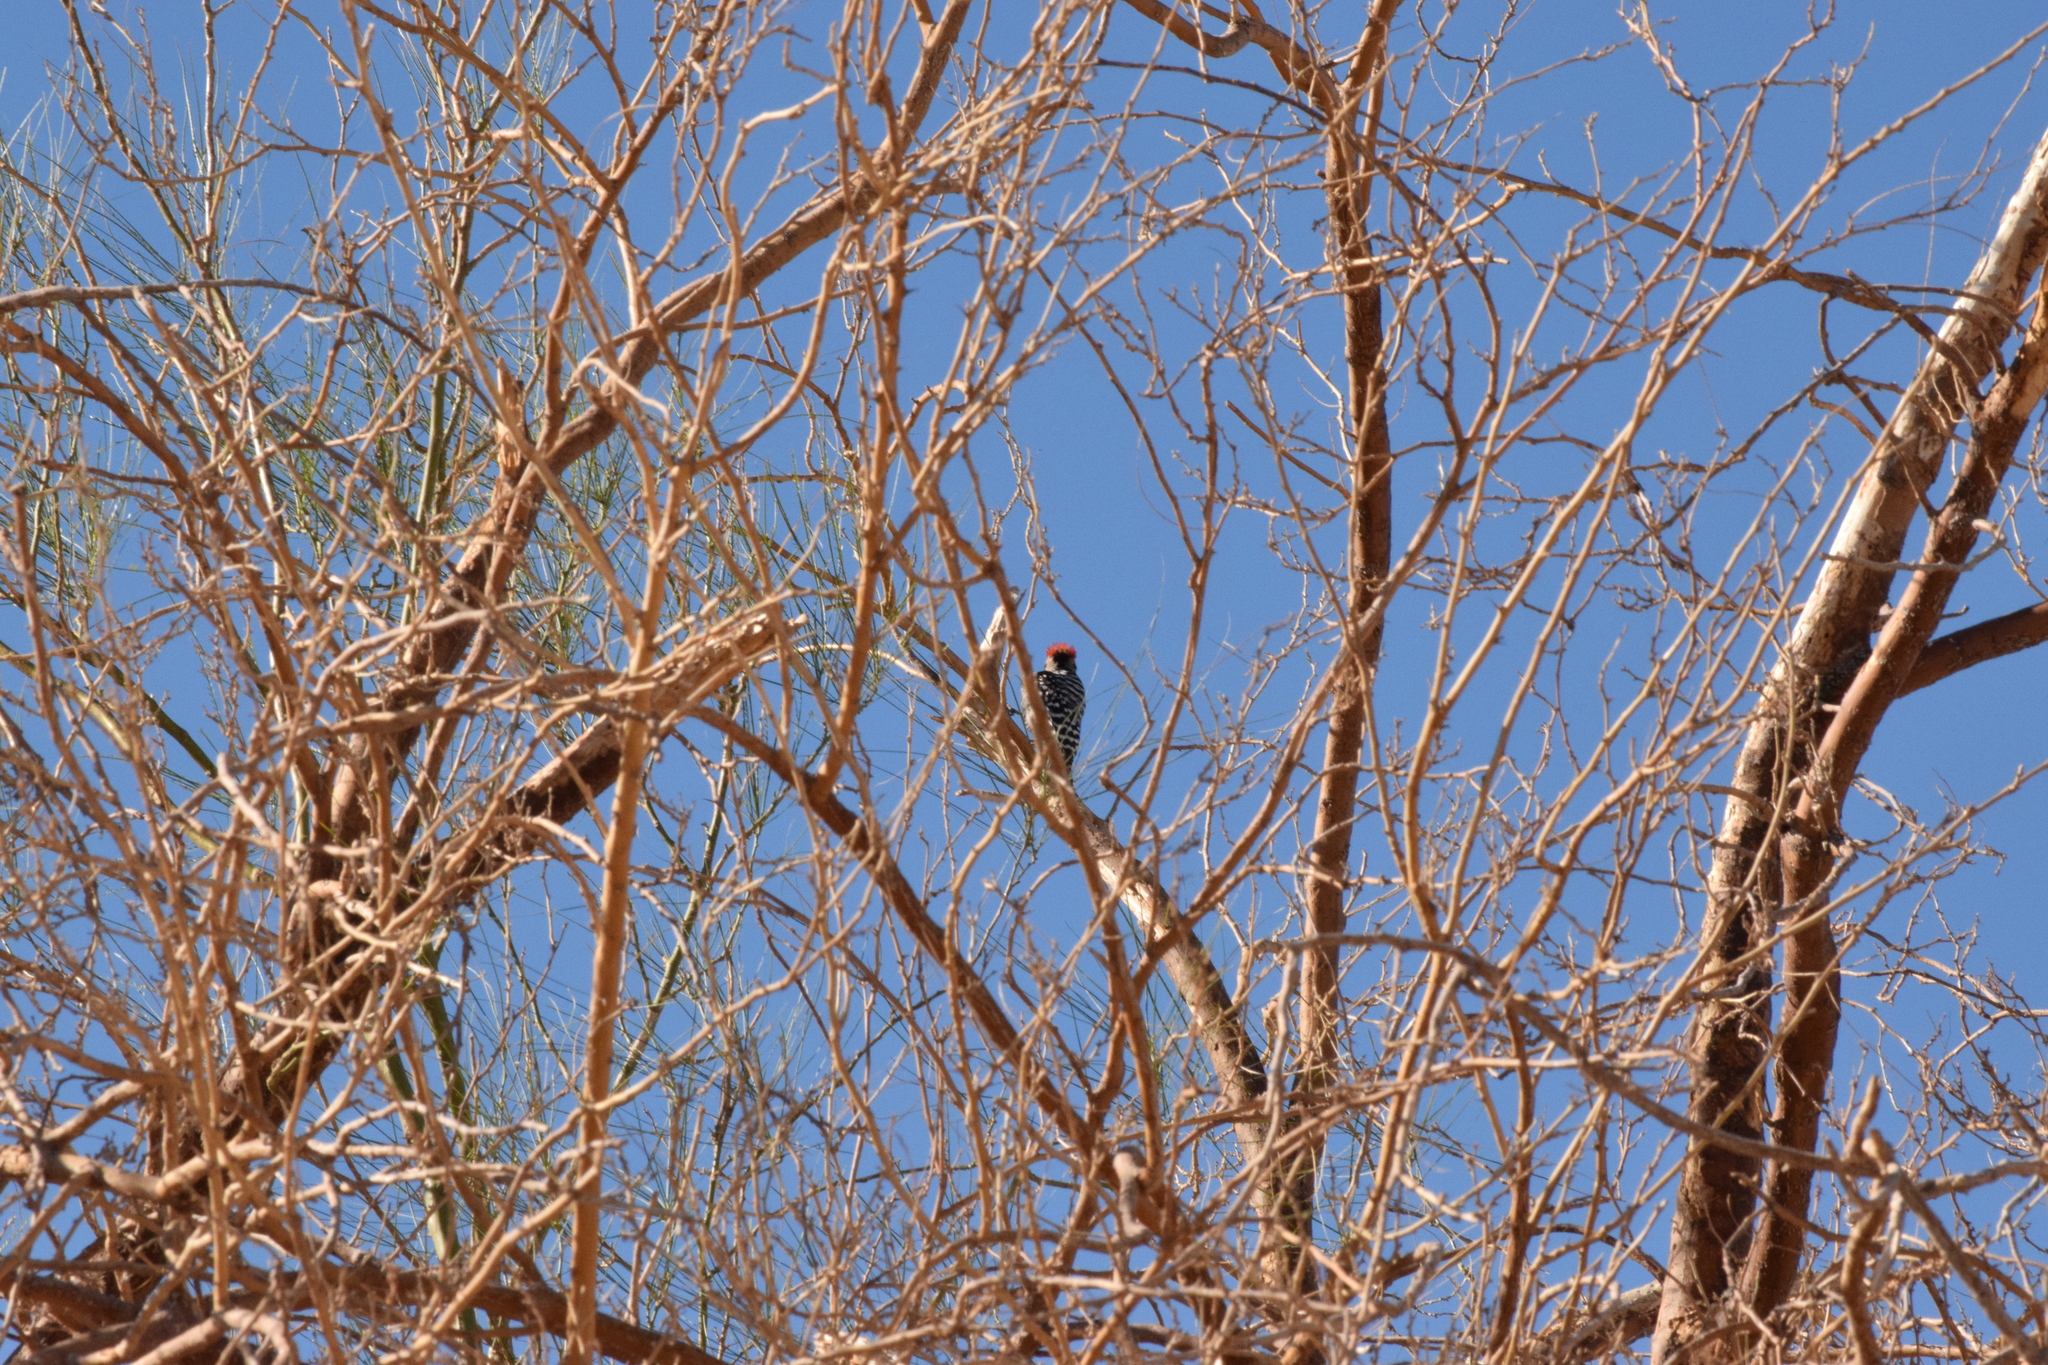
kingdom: Animalia
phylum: Chordata
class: Aves
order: Piciformes
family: Picidae
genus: Dryobates
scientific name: Dryobates scalaris
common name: Ladder-backed woodpecker
